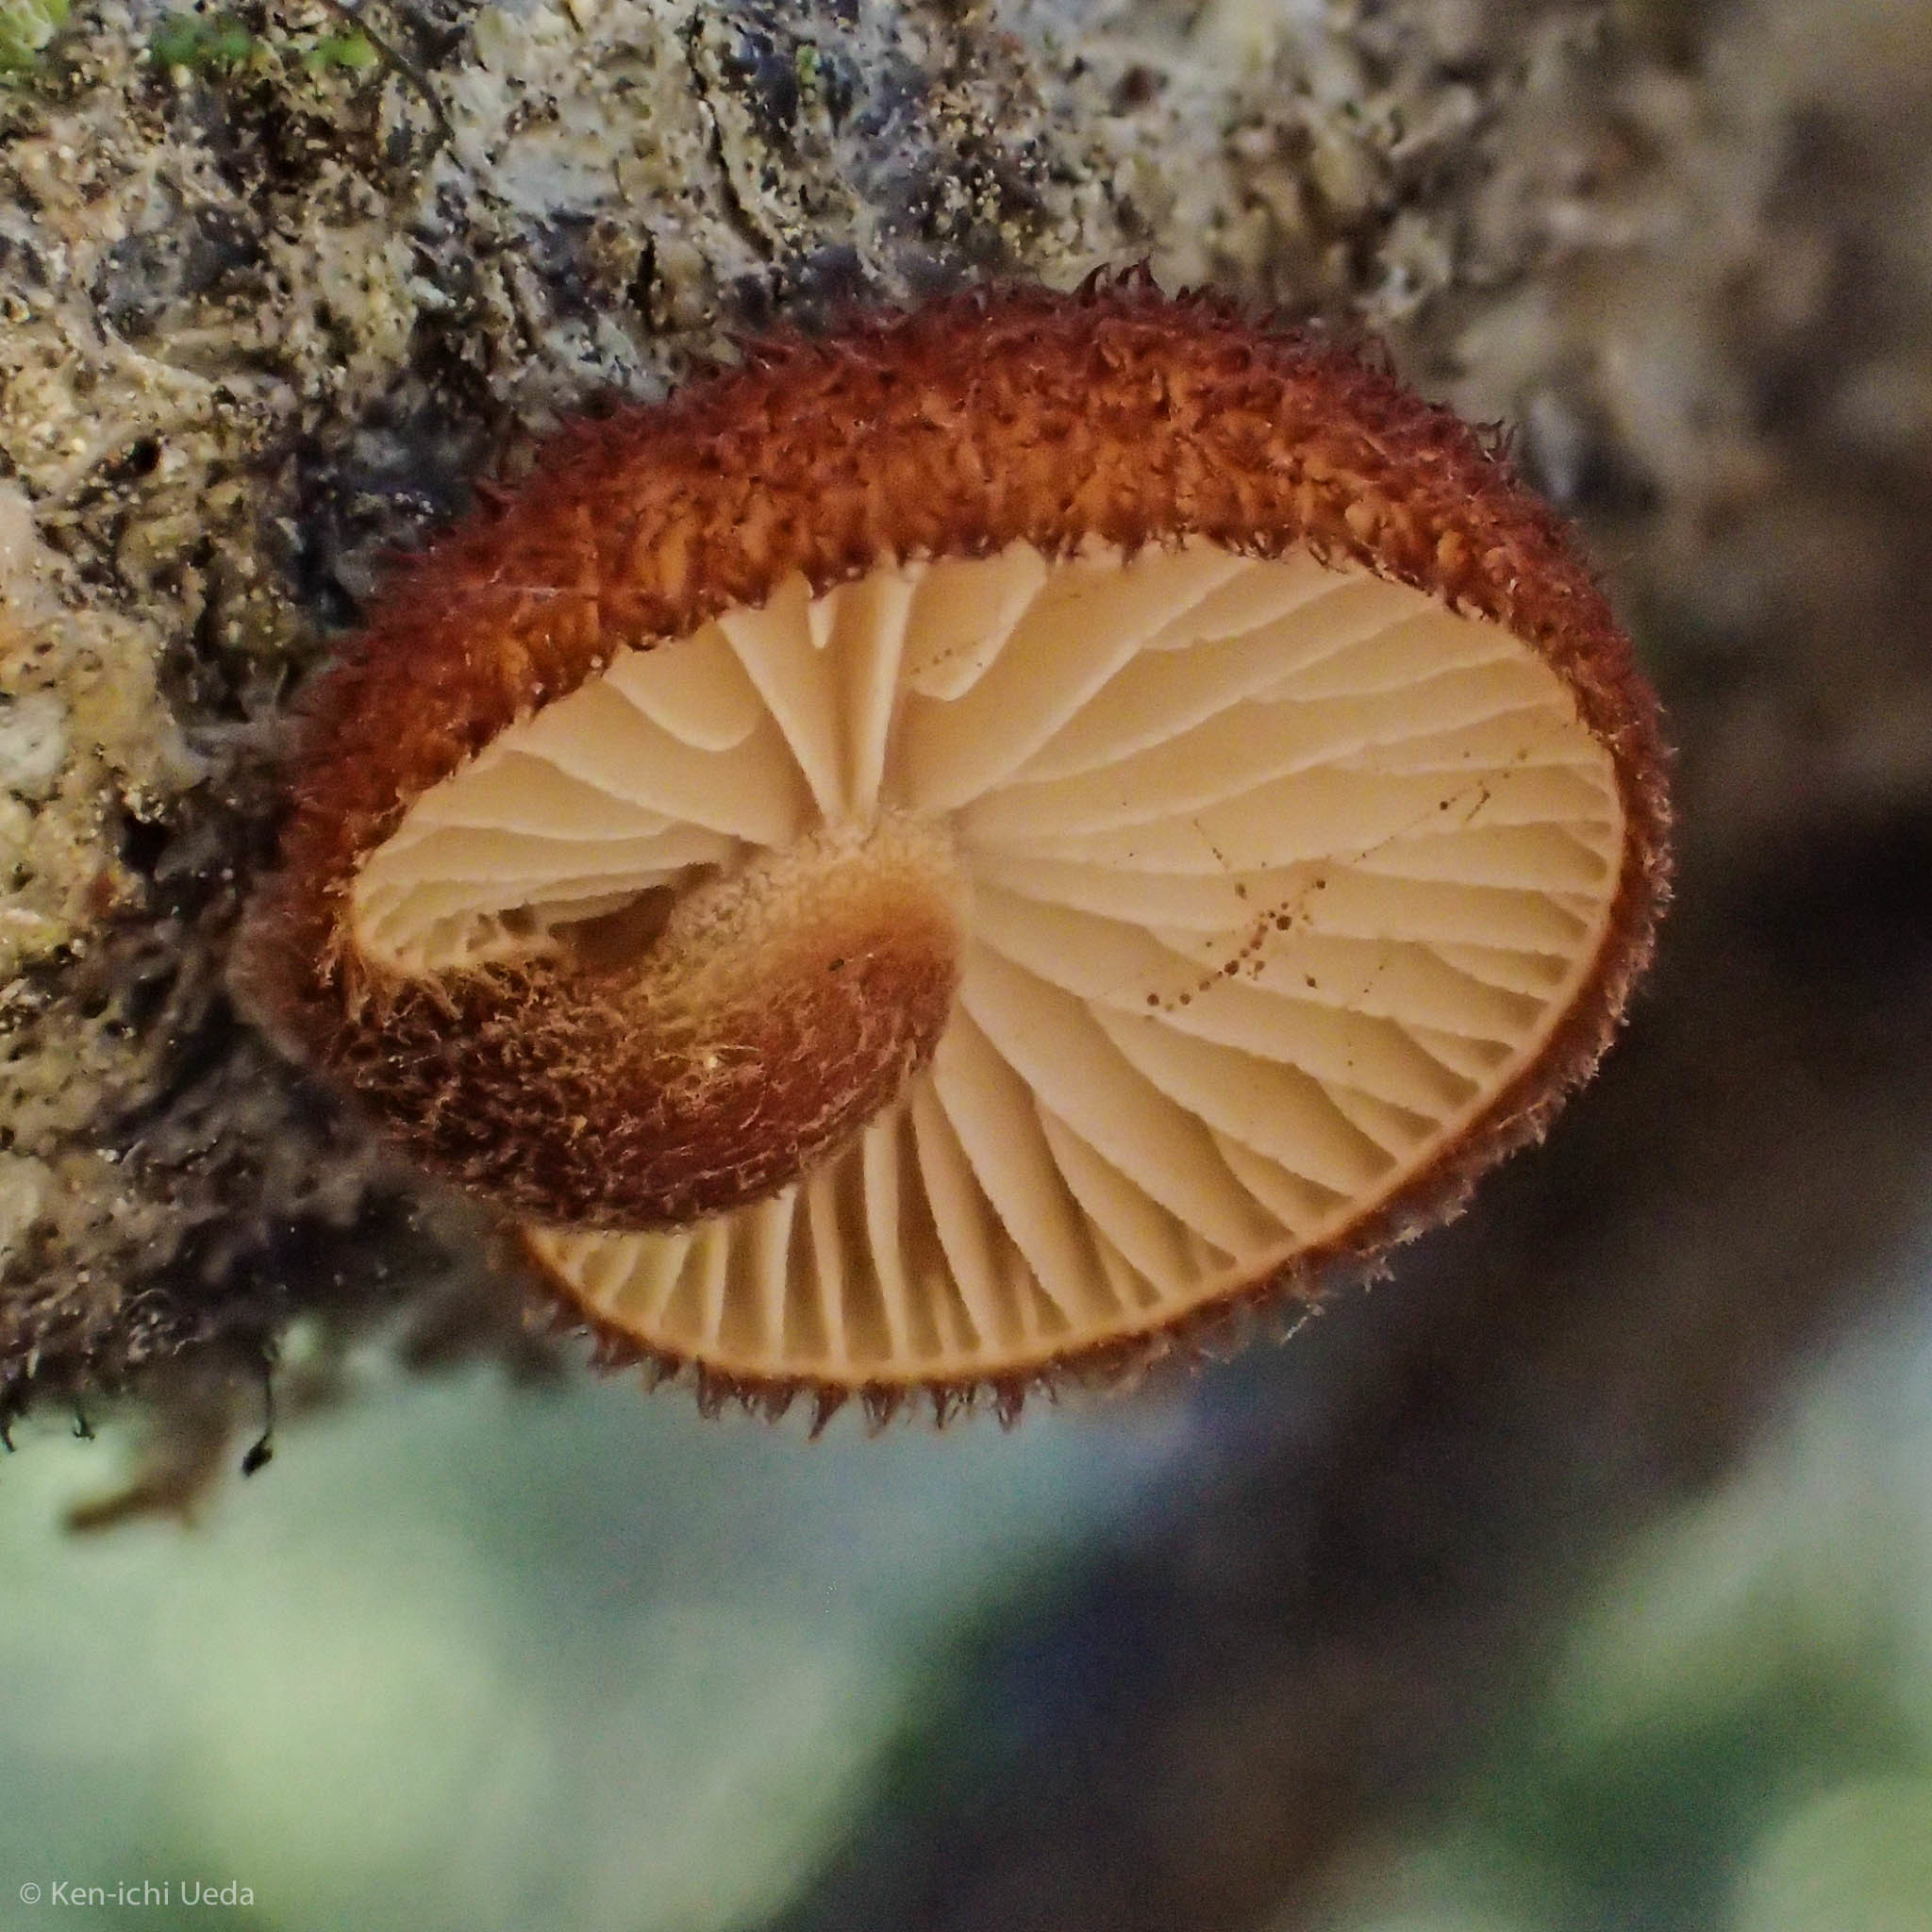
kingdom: Fungi
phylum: Basidiomycota
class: Agaricomycetes
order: Agaricales
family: Tubariaceae
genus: Phaeomarasmius
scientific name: Phaeomarasmius erinaceus
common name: Hedgehog scalycap
